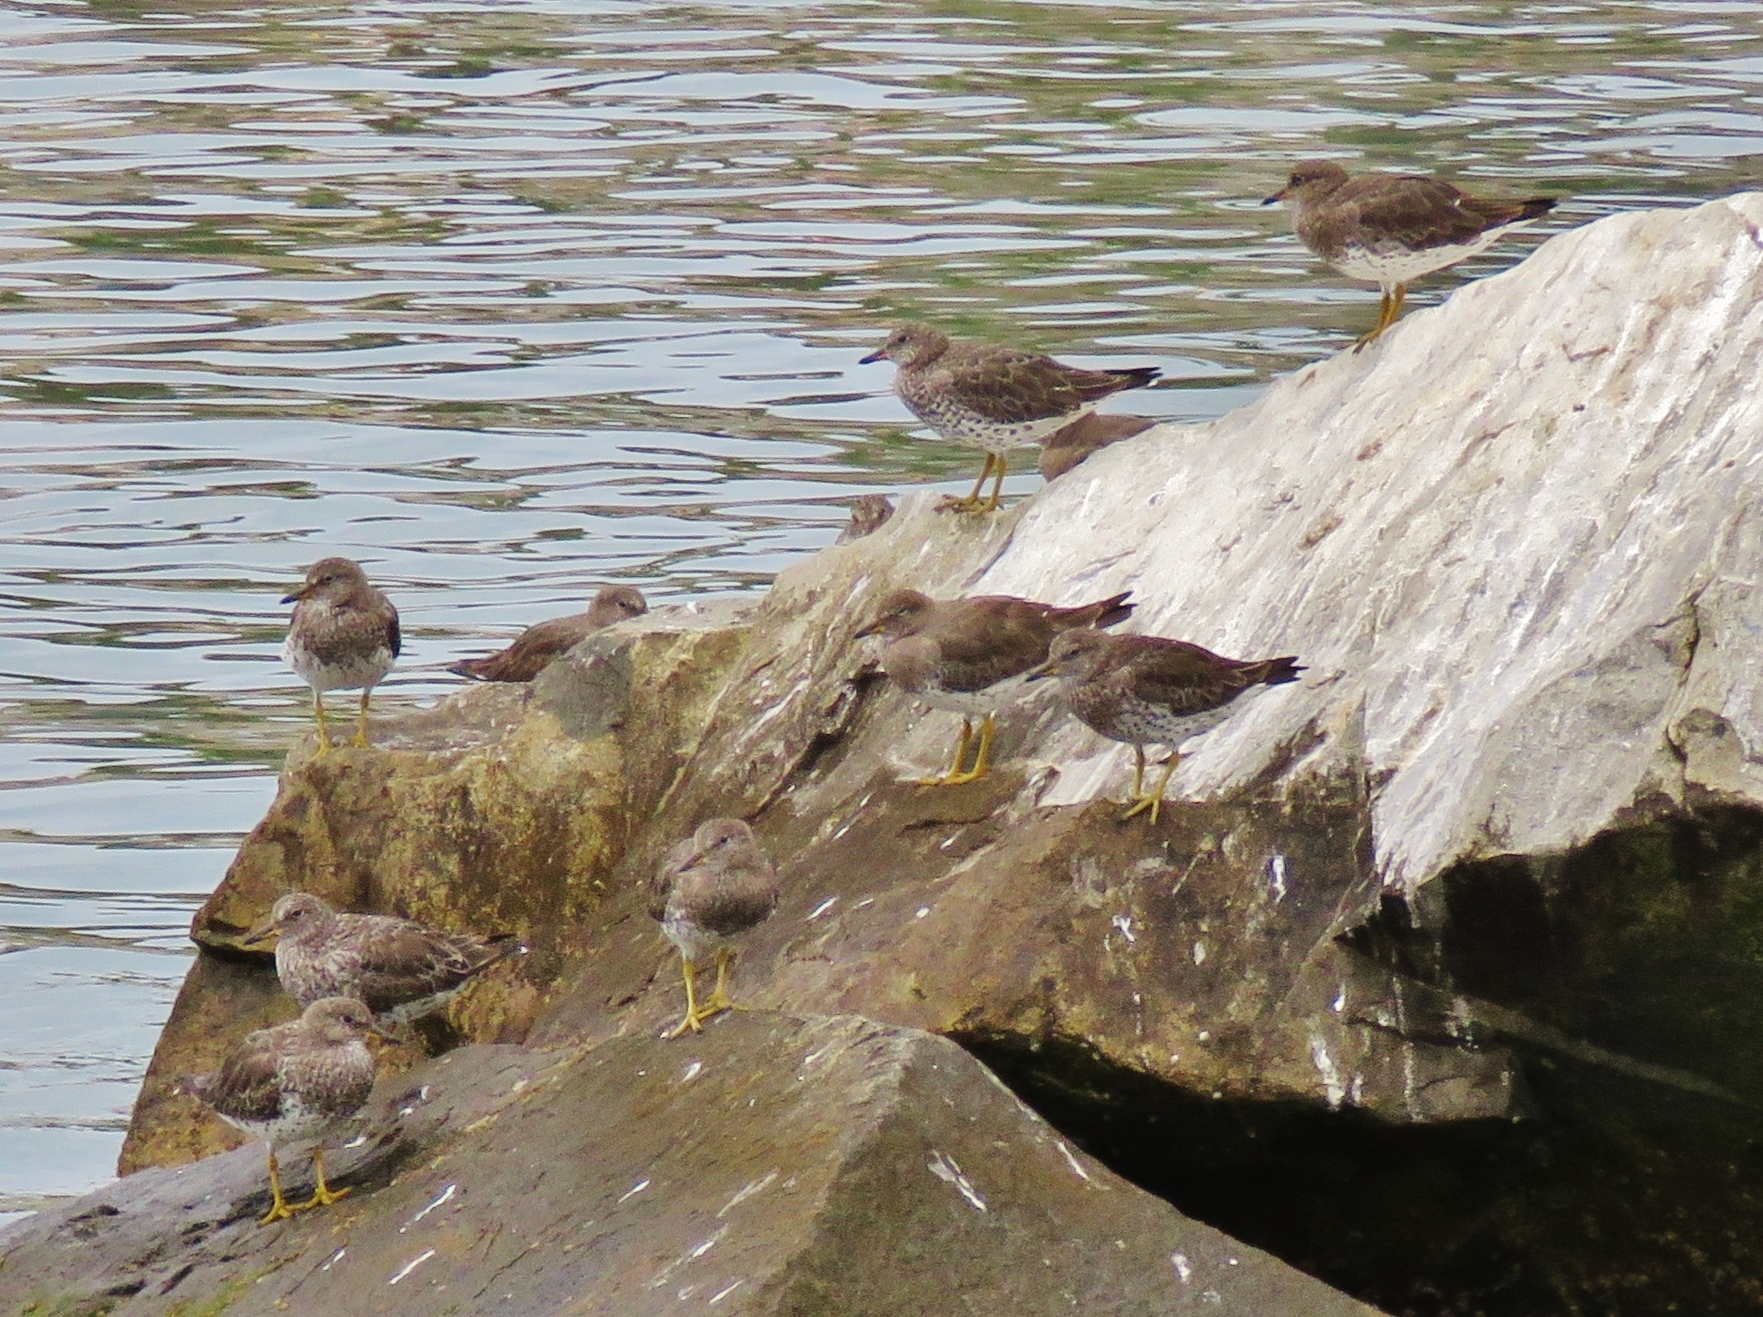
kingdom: Animalia
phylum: Chordata
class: Aves
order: Charadriiformes
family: Scolopacidae
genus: Calidris
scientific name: Calidris virgata
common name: Surfbird
